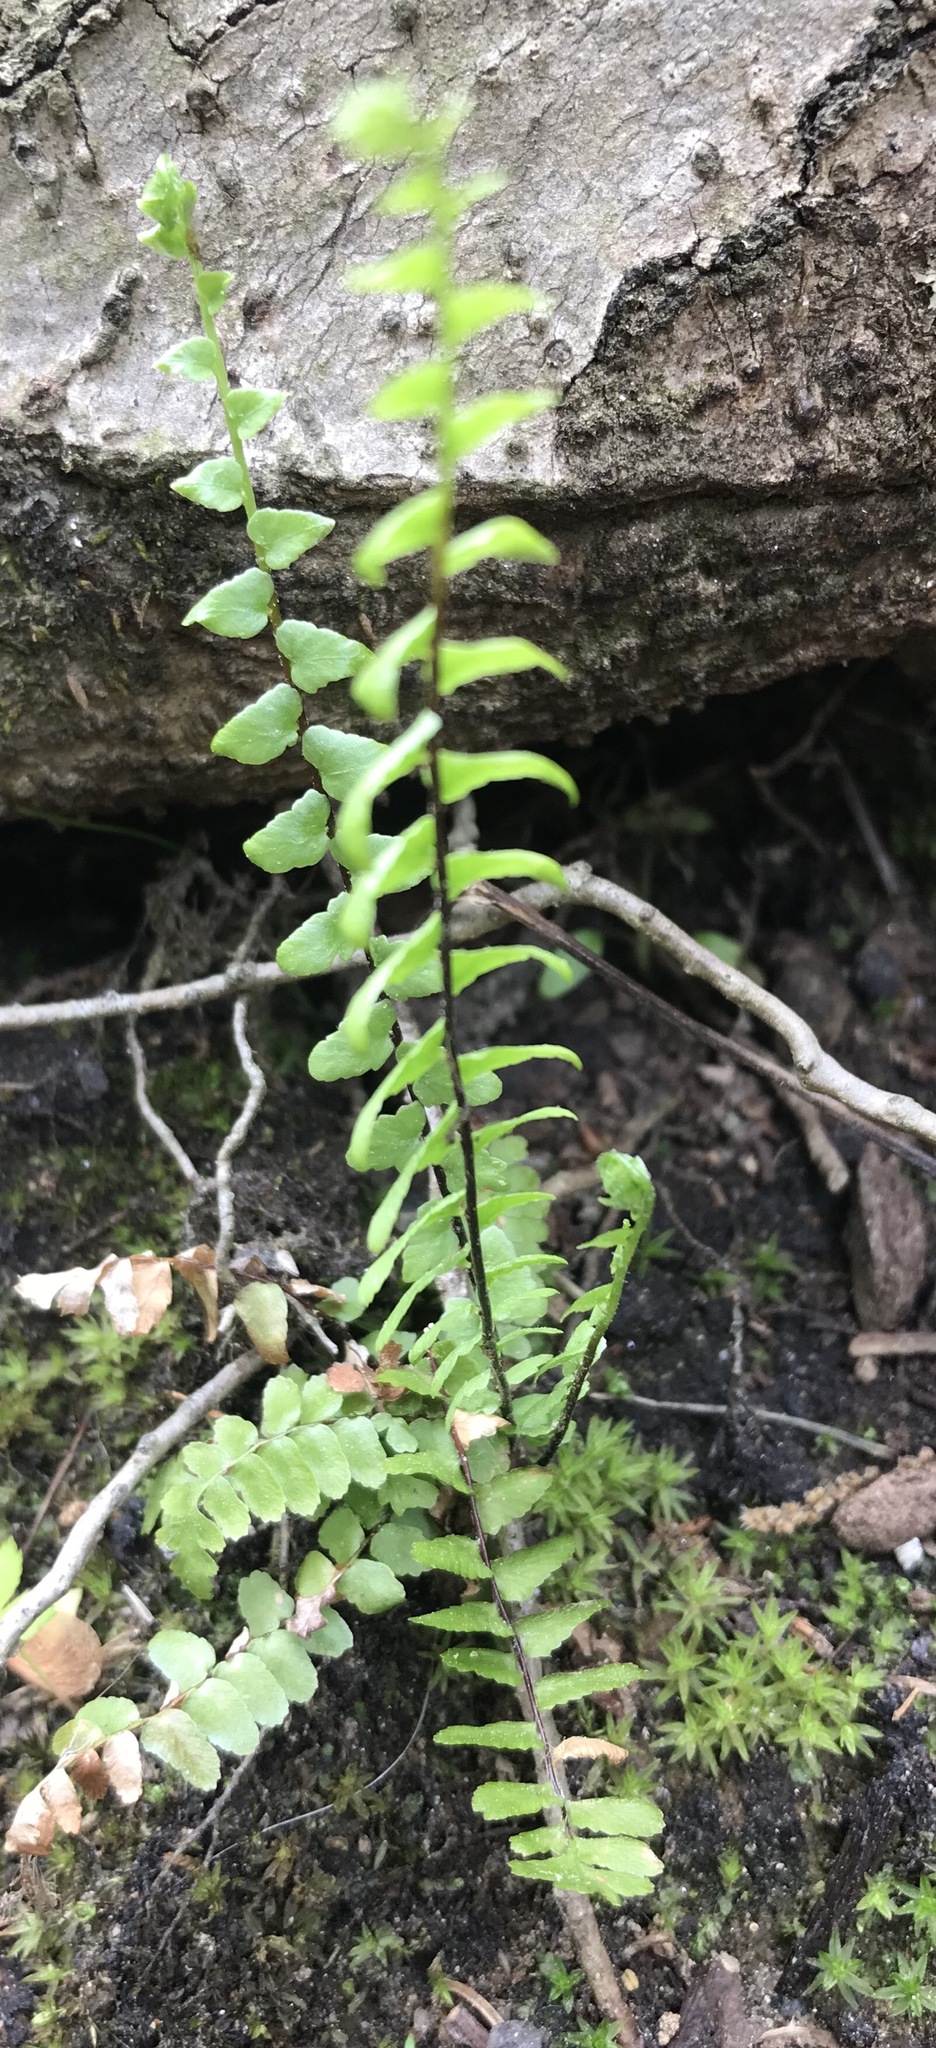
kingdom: Plantae
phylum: Tracheophyta
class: Polypodiopsida
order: Polypodiales
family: Aspleniaceae
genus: Asplenium
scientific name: Asplenium platyneuron
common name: Ebony spleenwort
